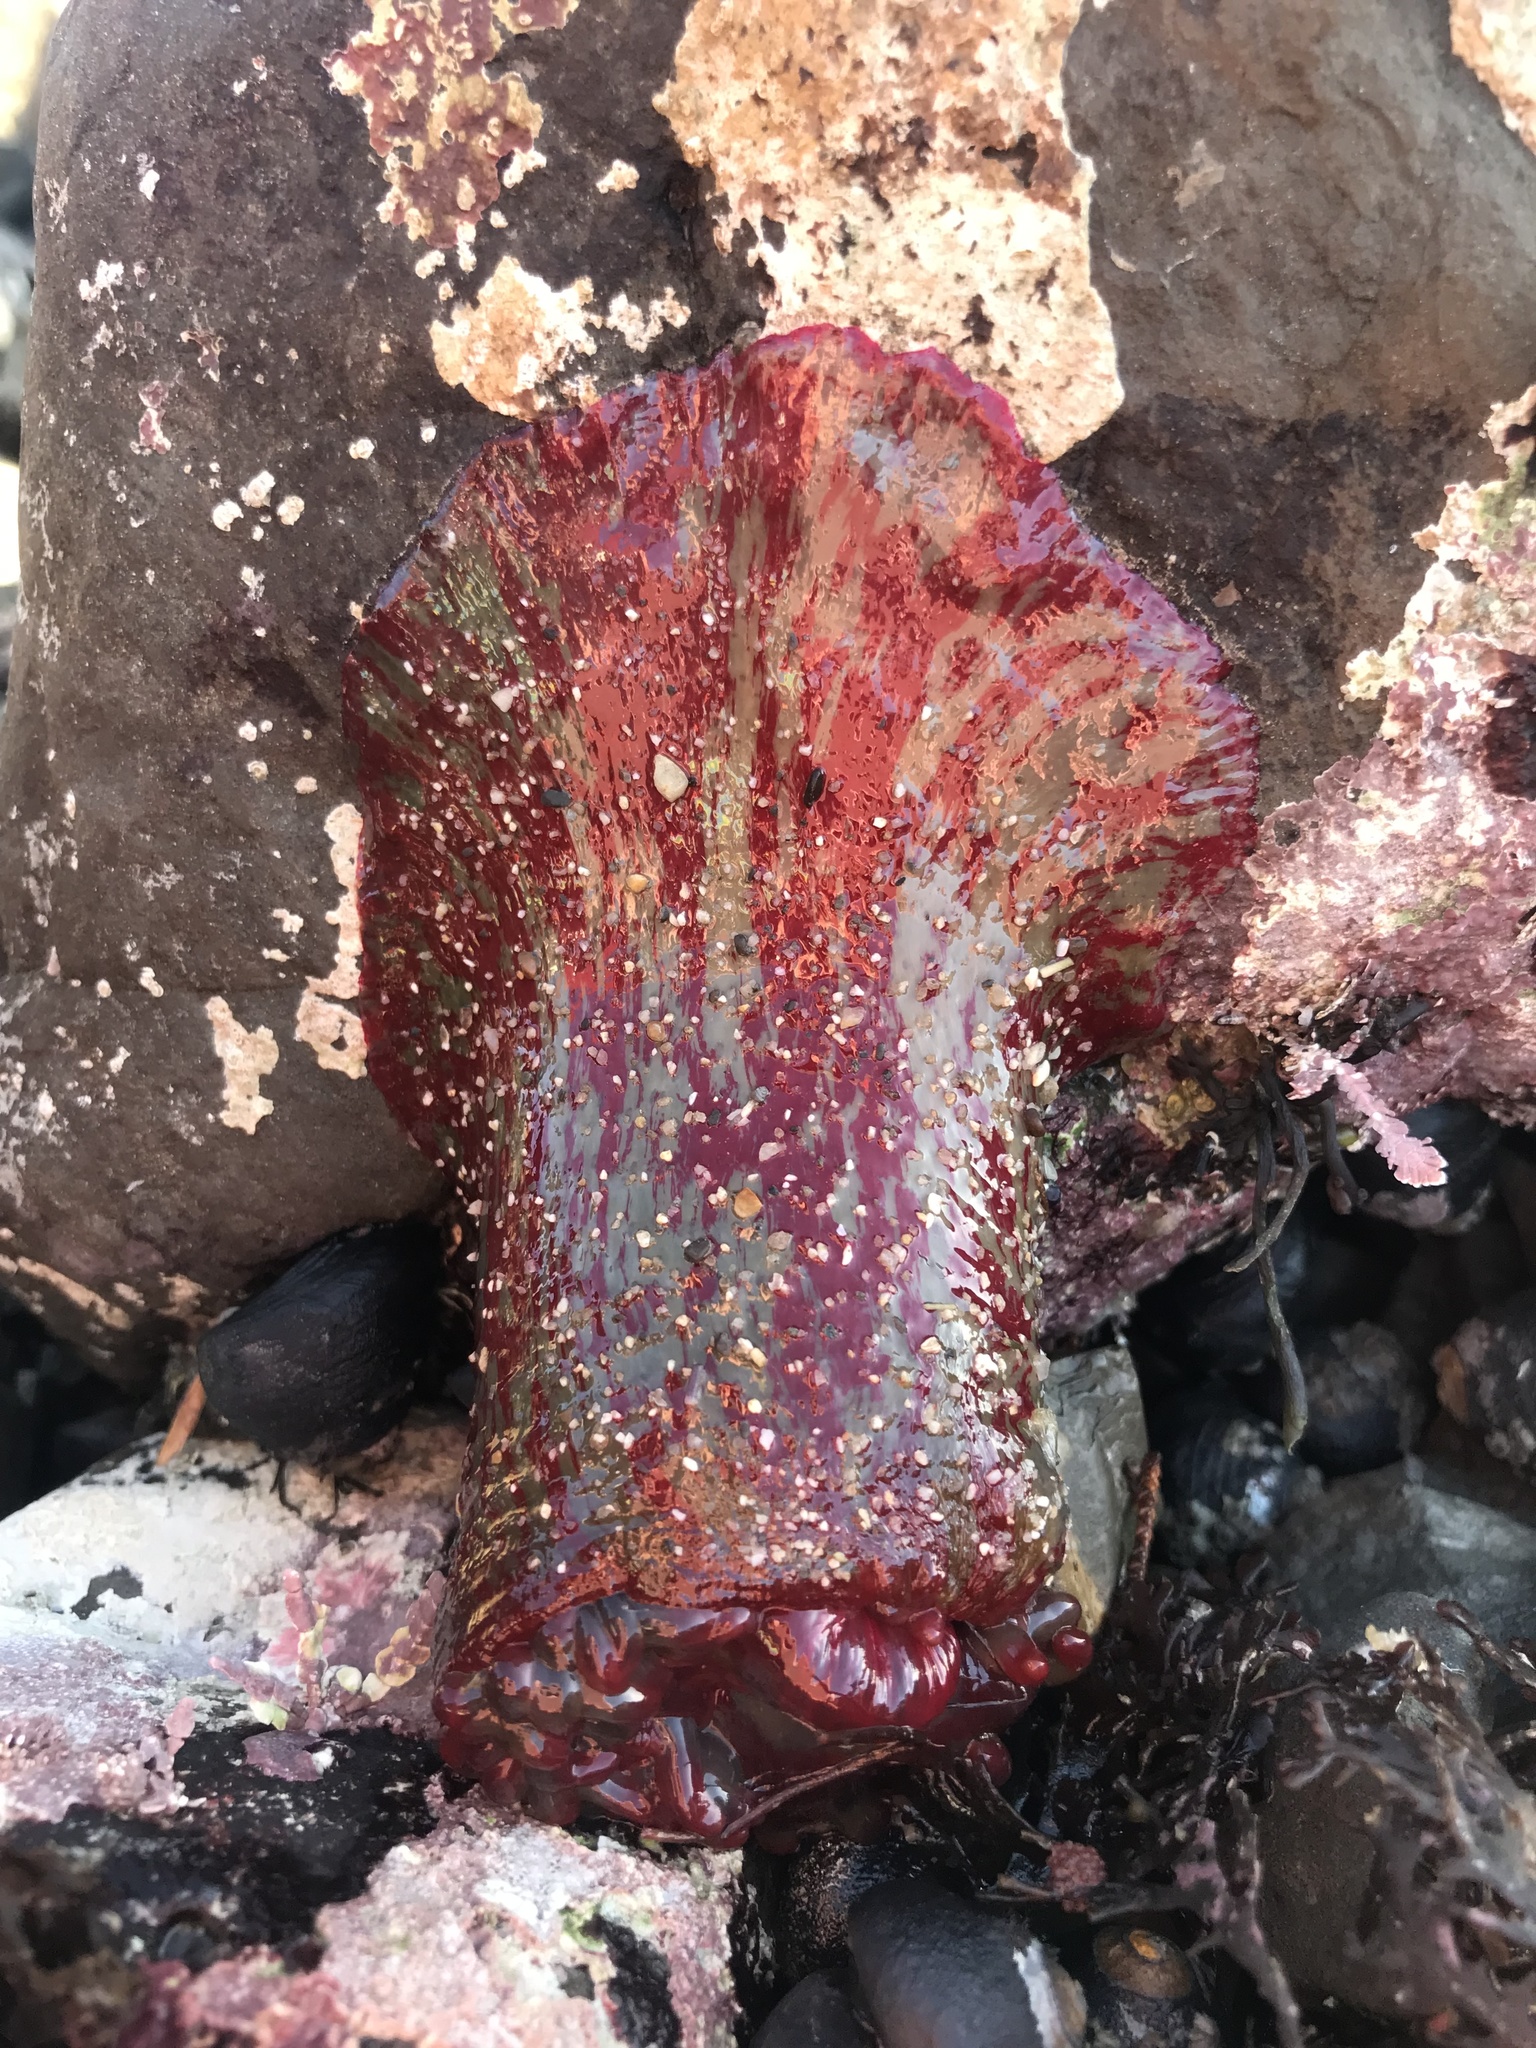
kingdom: Animalia
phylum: Cnidaria
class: Anthozoa
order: Actiniaria
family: Actiniidae
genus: Urticina
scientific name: Urticina grebelnyi
